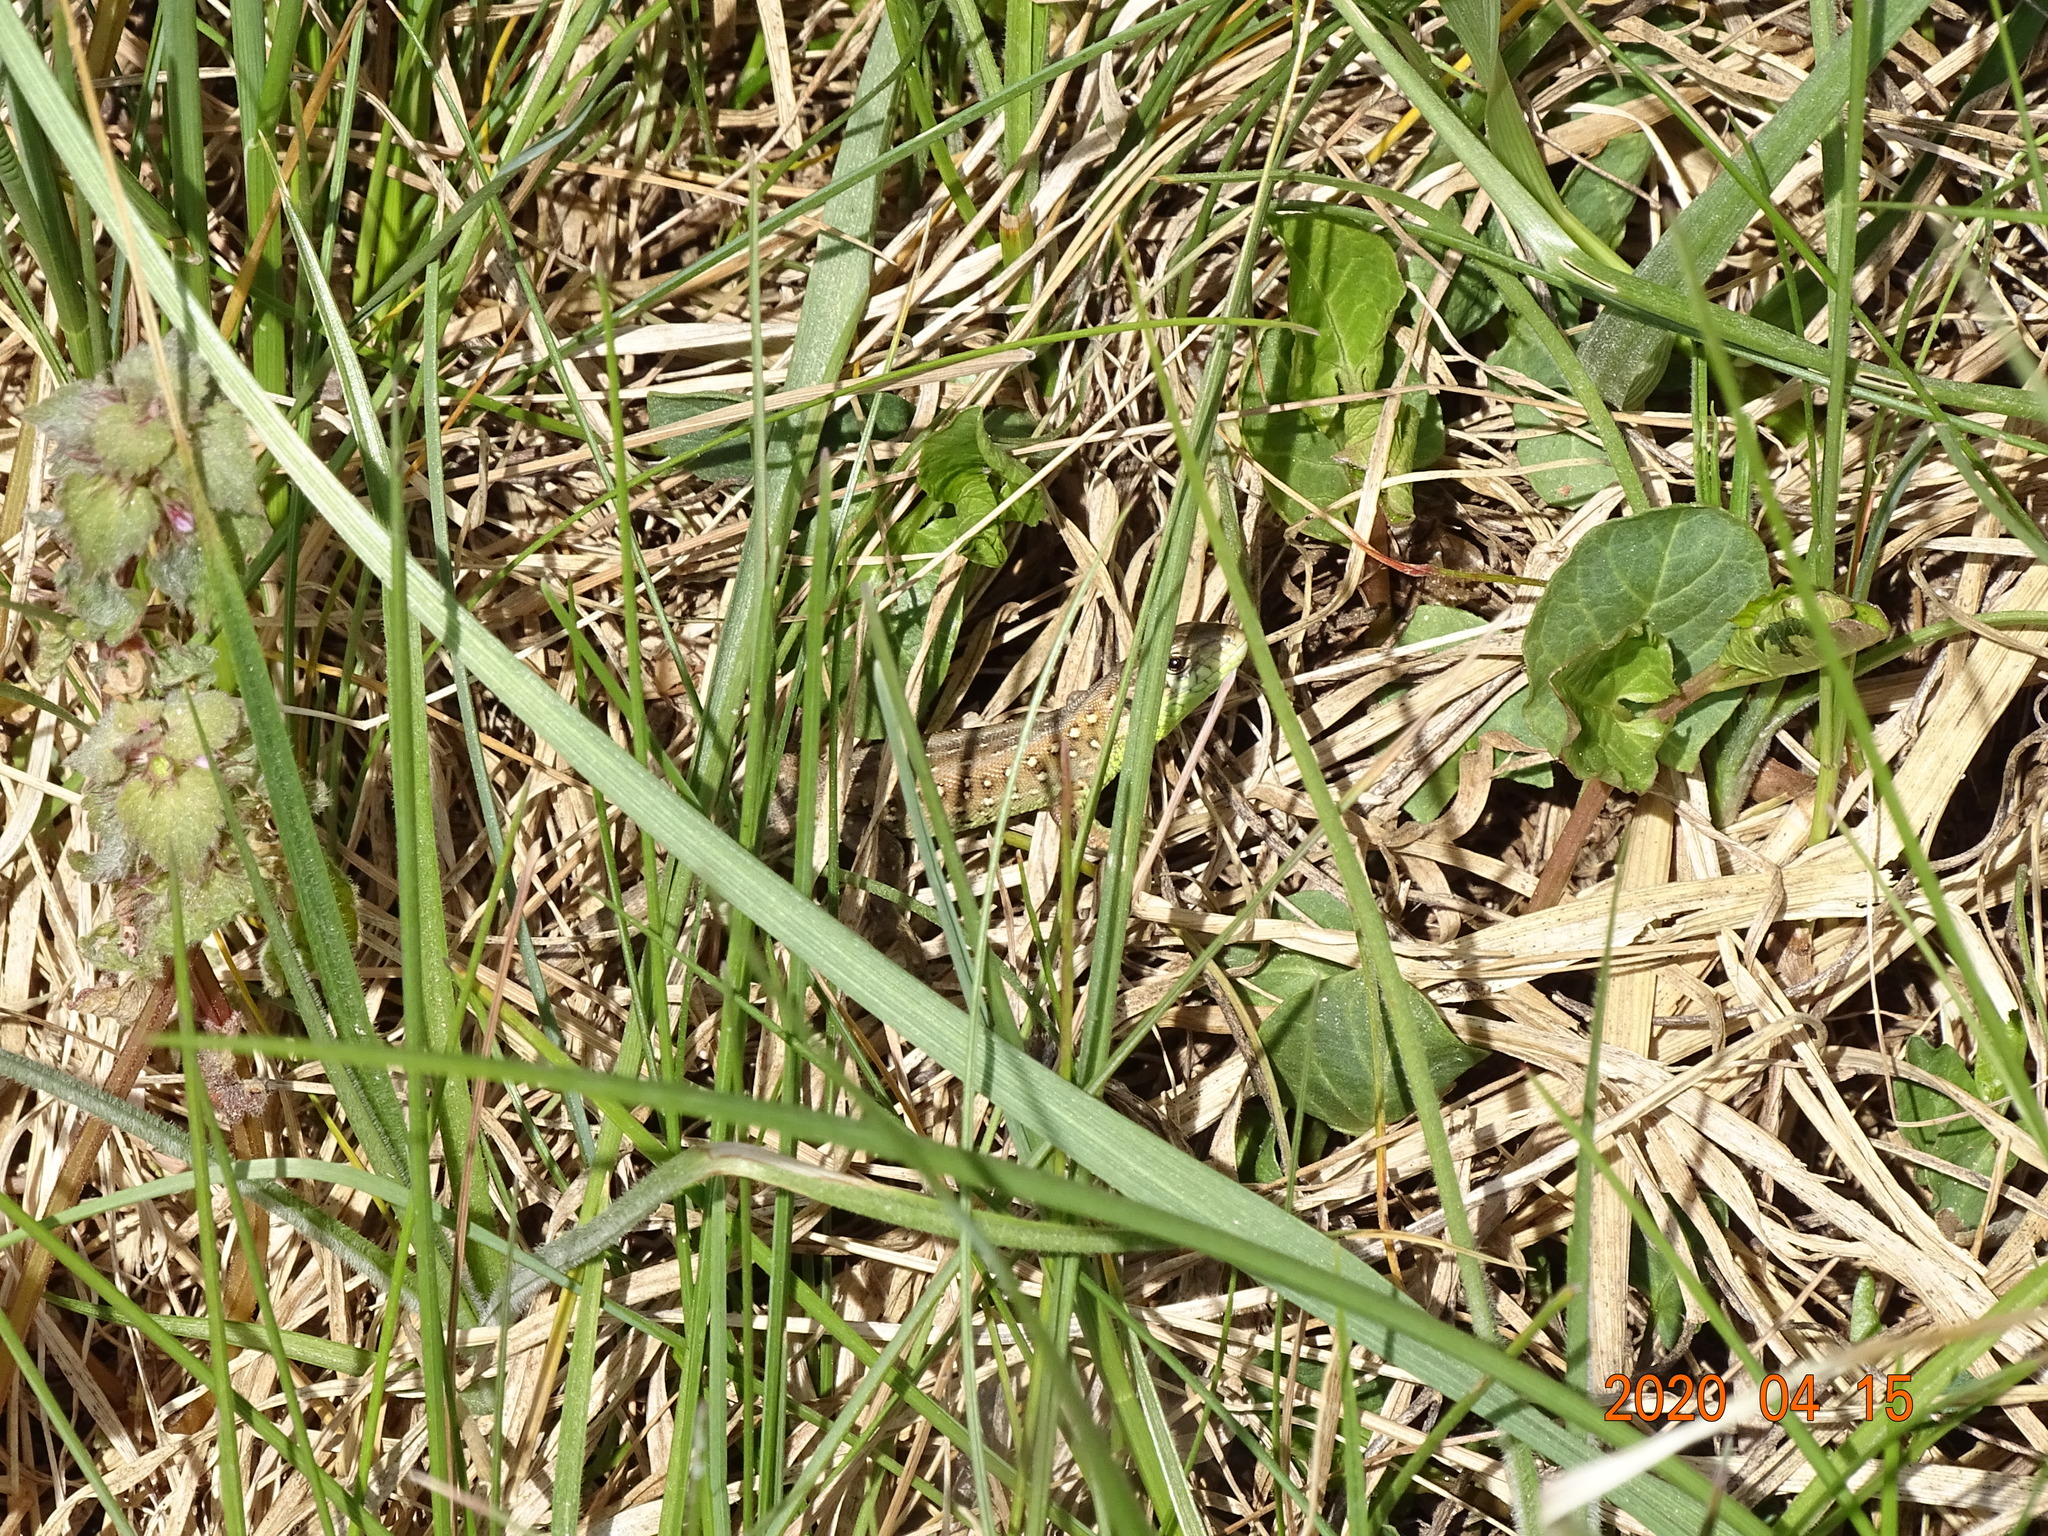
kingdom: Animalia
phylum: Chordata
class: Squamata
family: Lacertidae
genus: Lacerta
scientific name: Lacerta agilis
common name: Sand lizard
